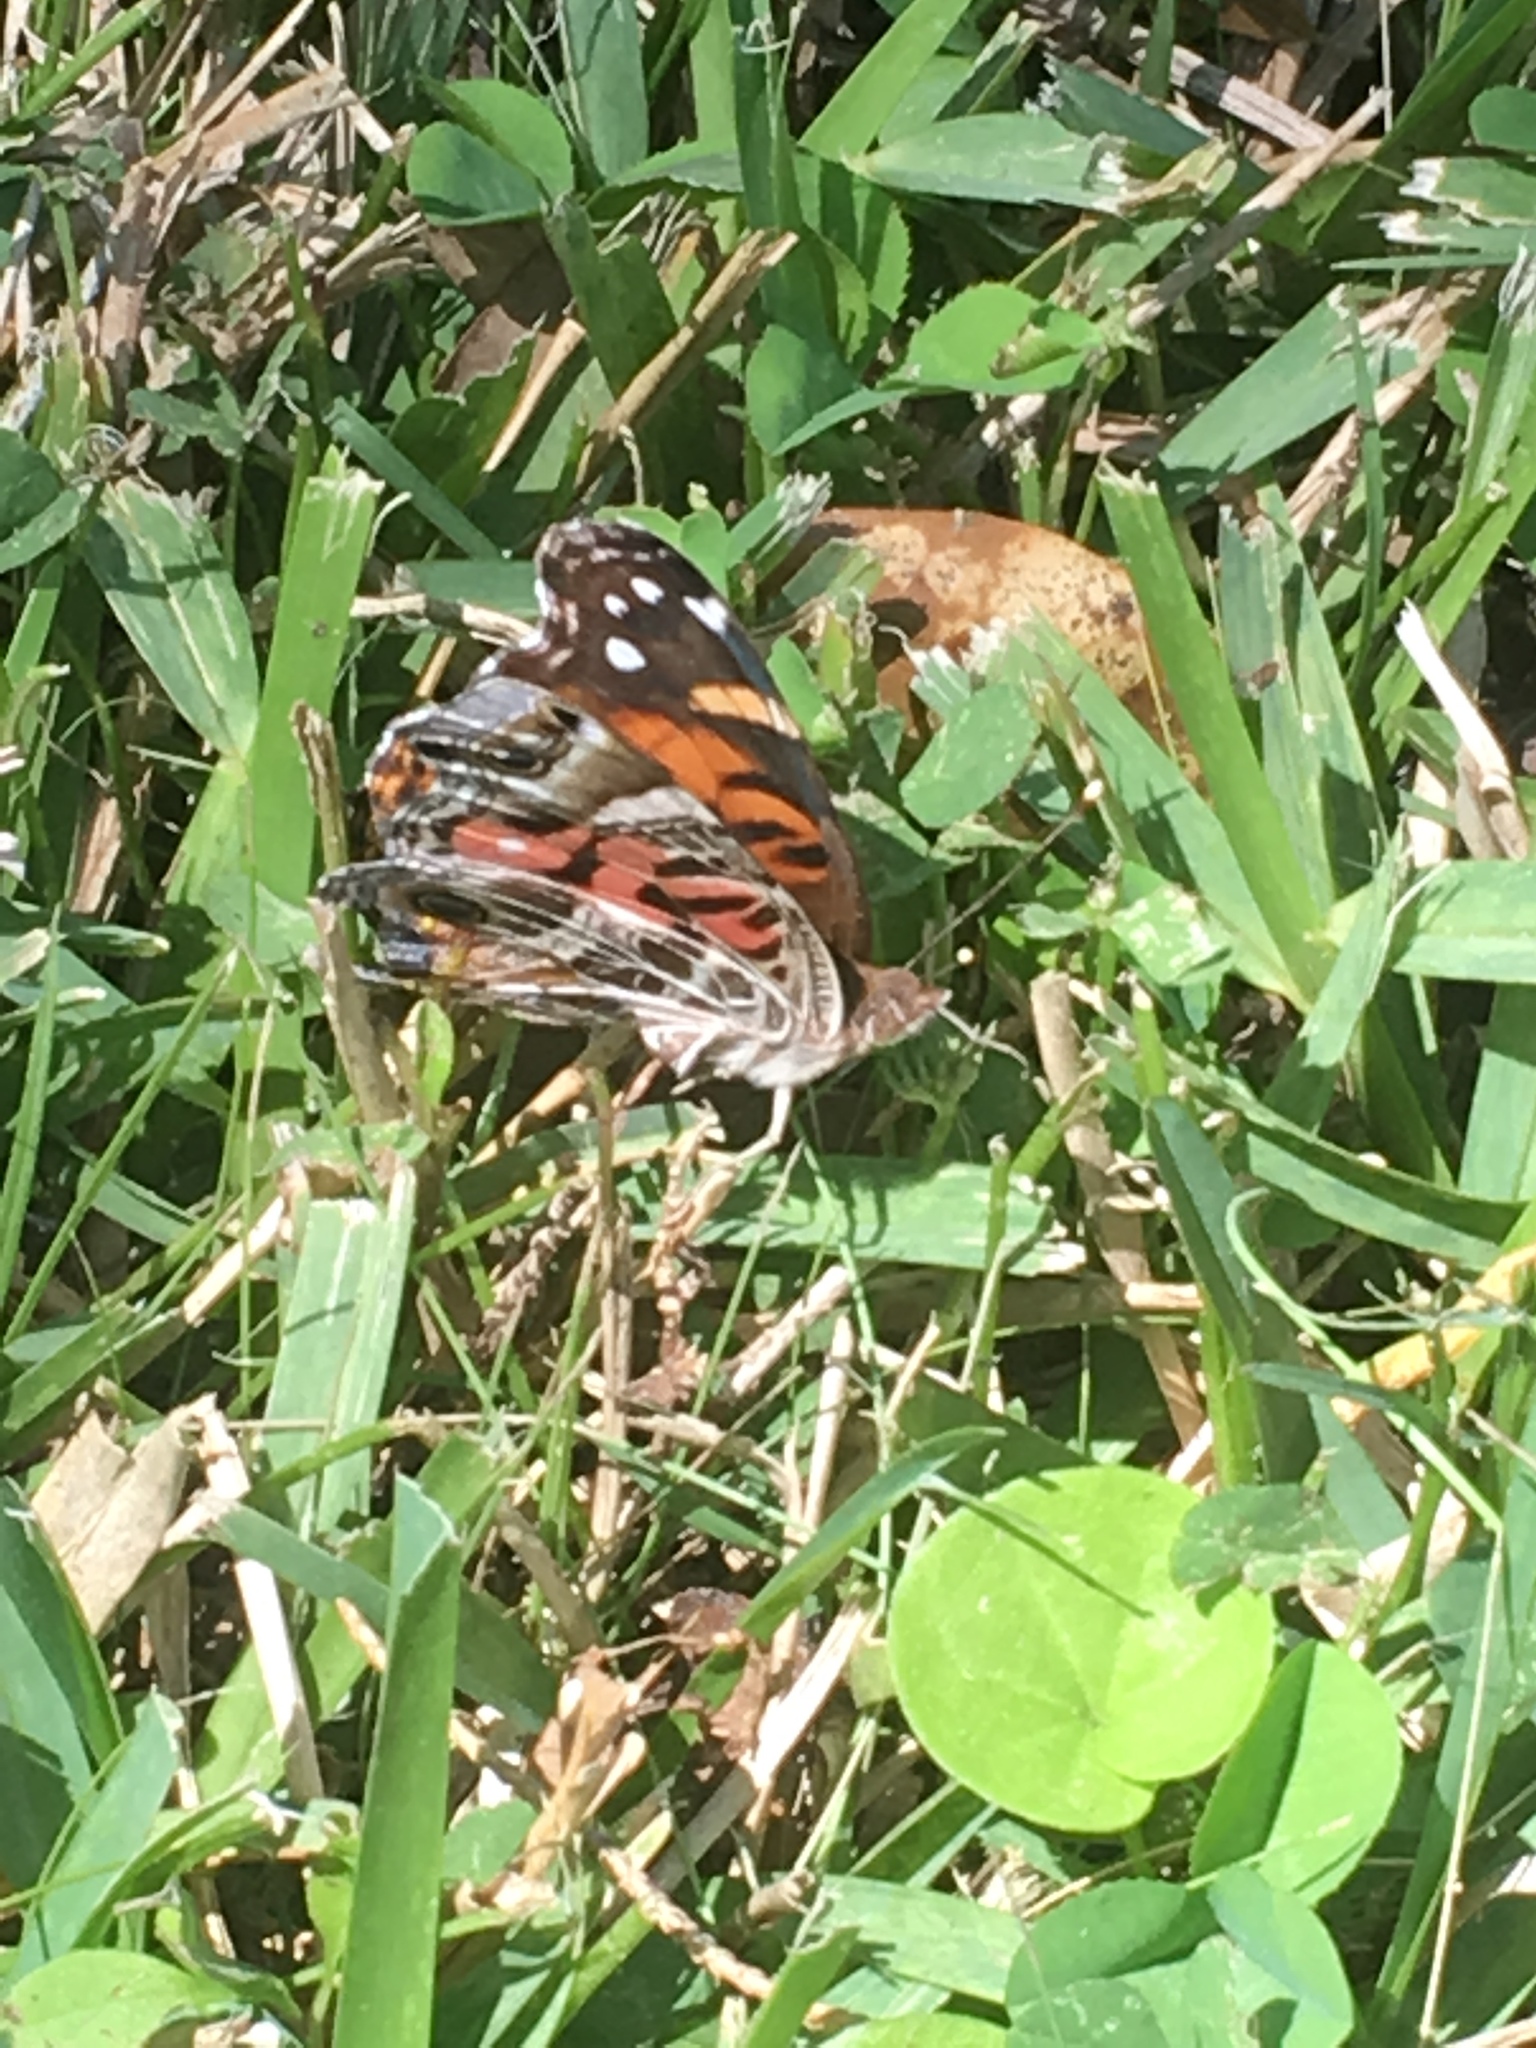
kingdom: Animalia
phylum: Arthropoda
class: Insecta
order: Lepidoptera
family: Nymphalidae
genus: Vanessa
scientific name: Vanessa virginiensis
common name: American lady
